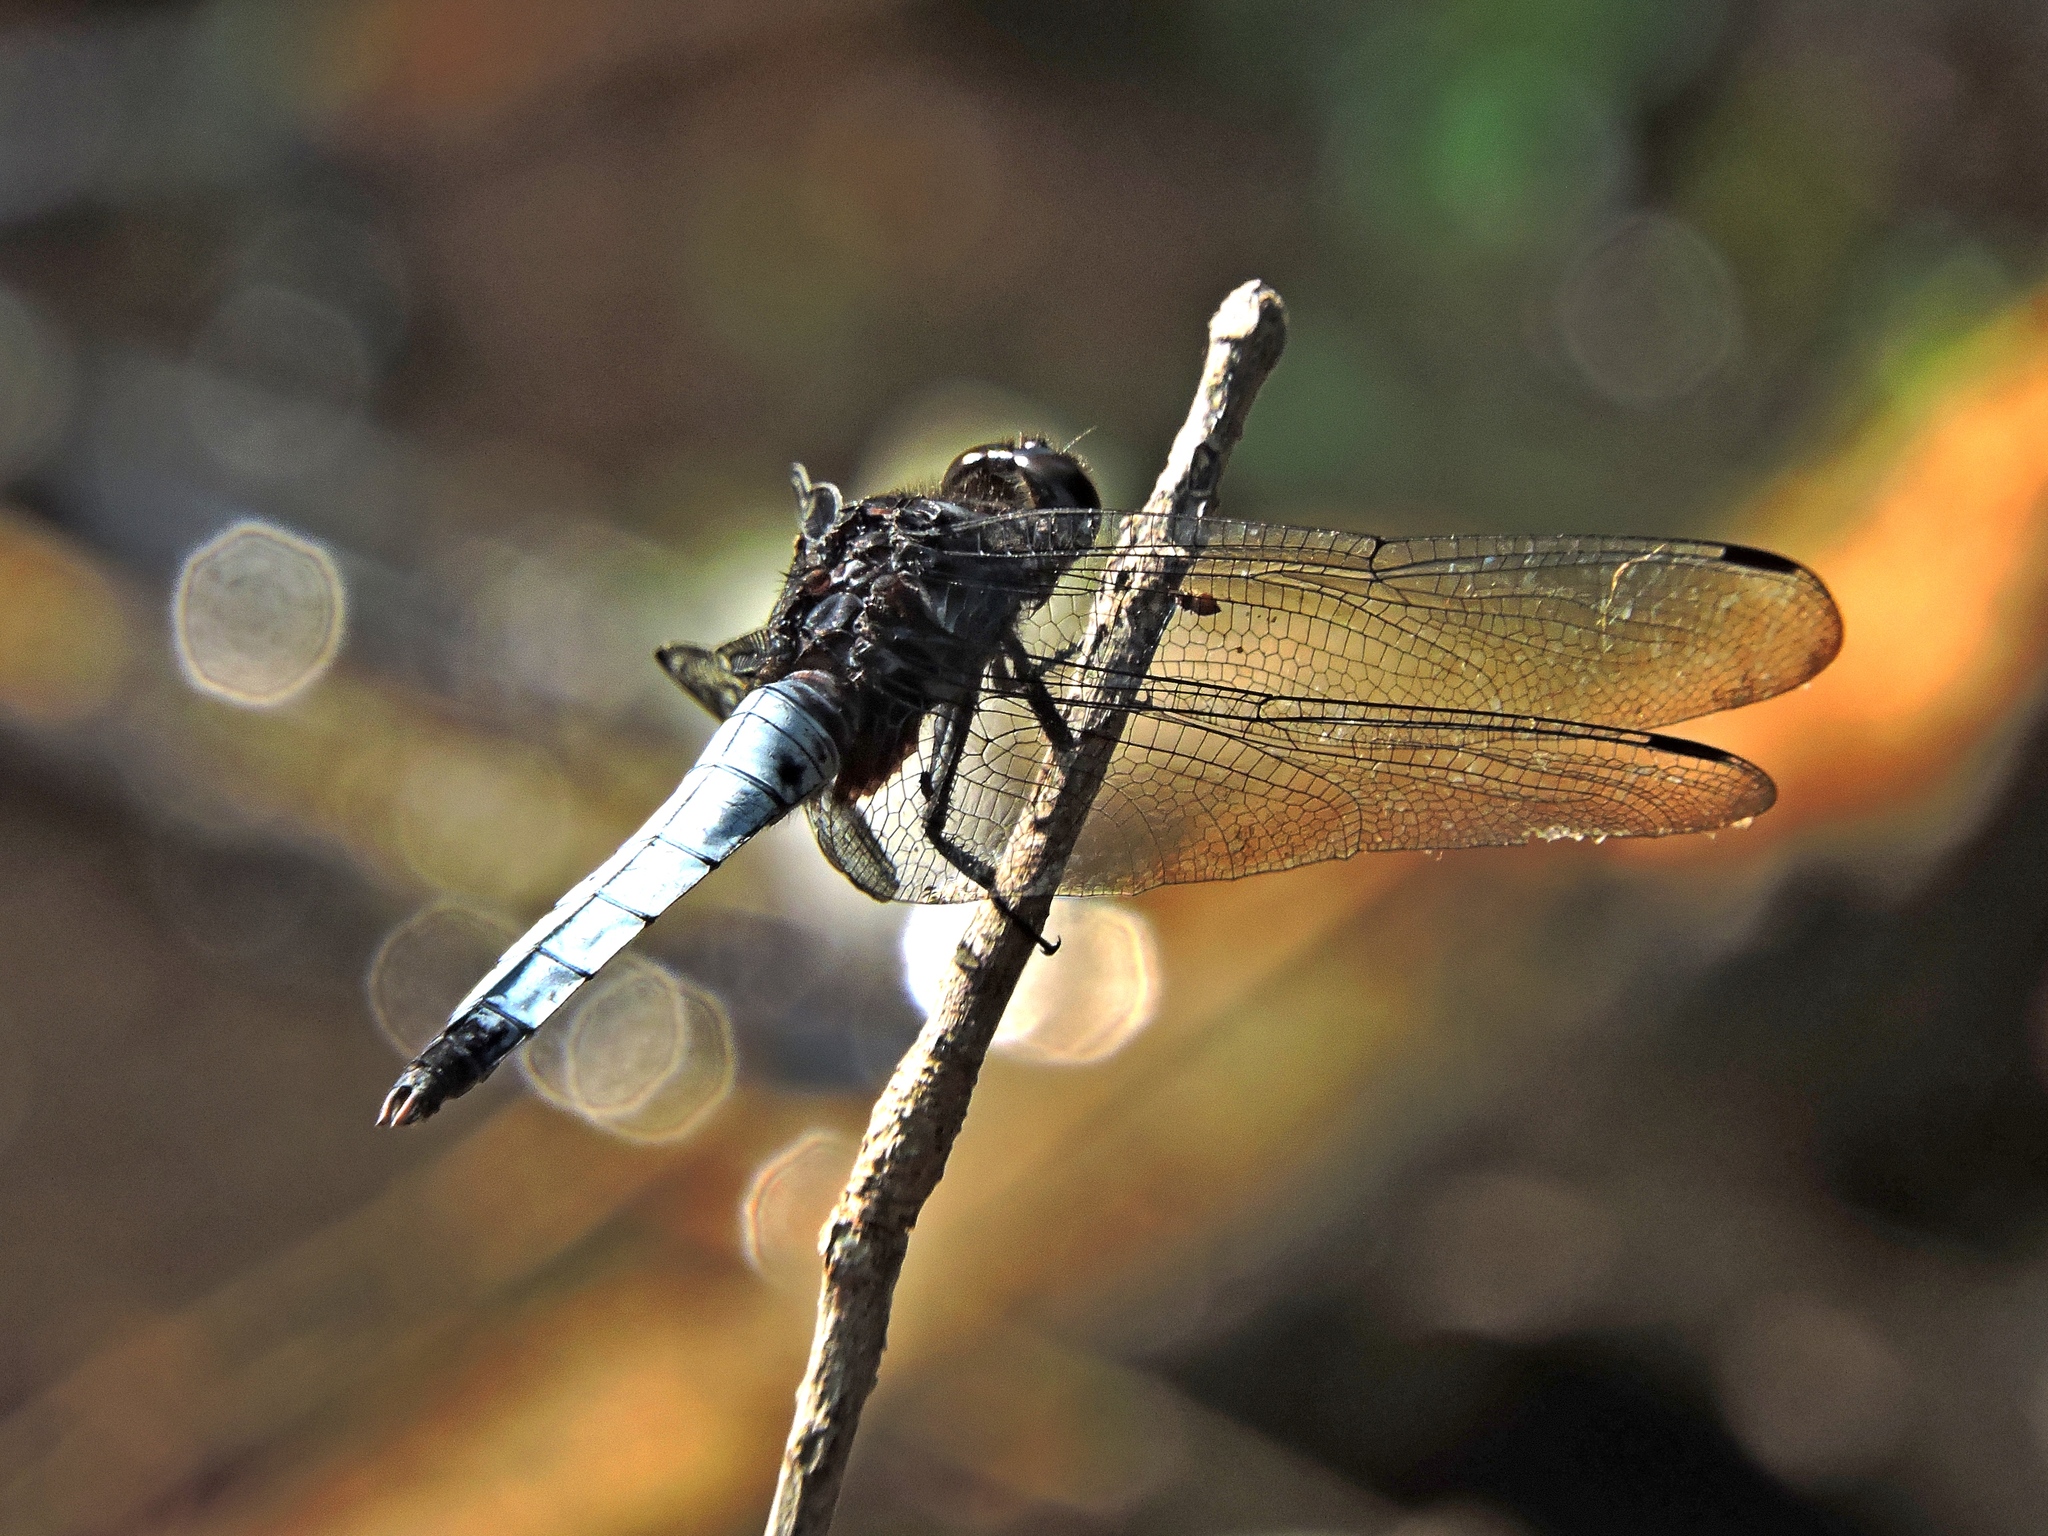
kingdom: Animalia
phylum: Arthropoda
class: Insecta
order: Odonata
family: Libellulidae
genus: Orthetrum
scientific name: Orthetrum triangulare
